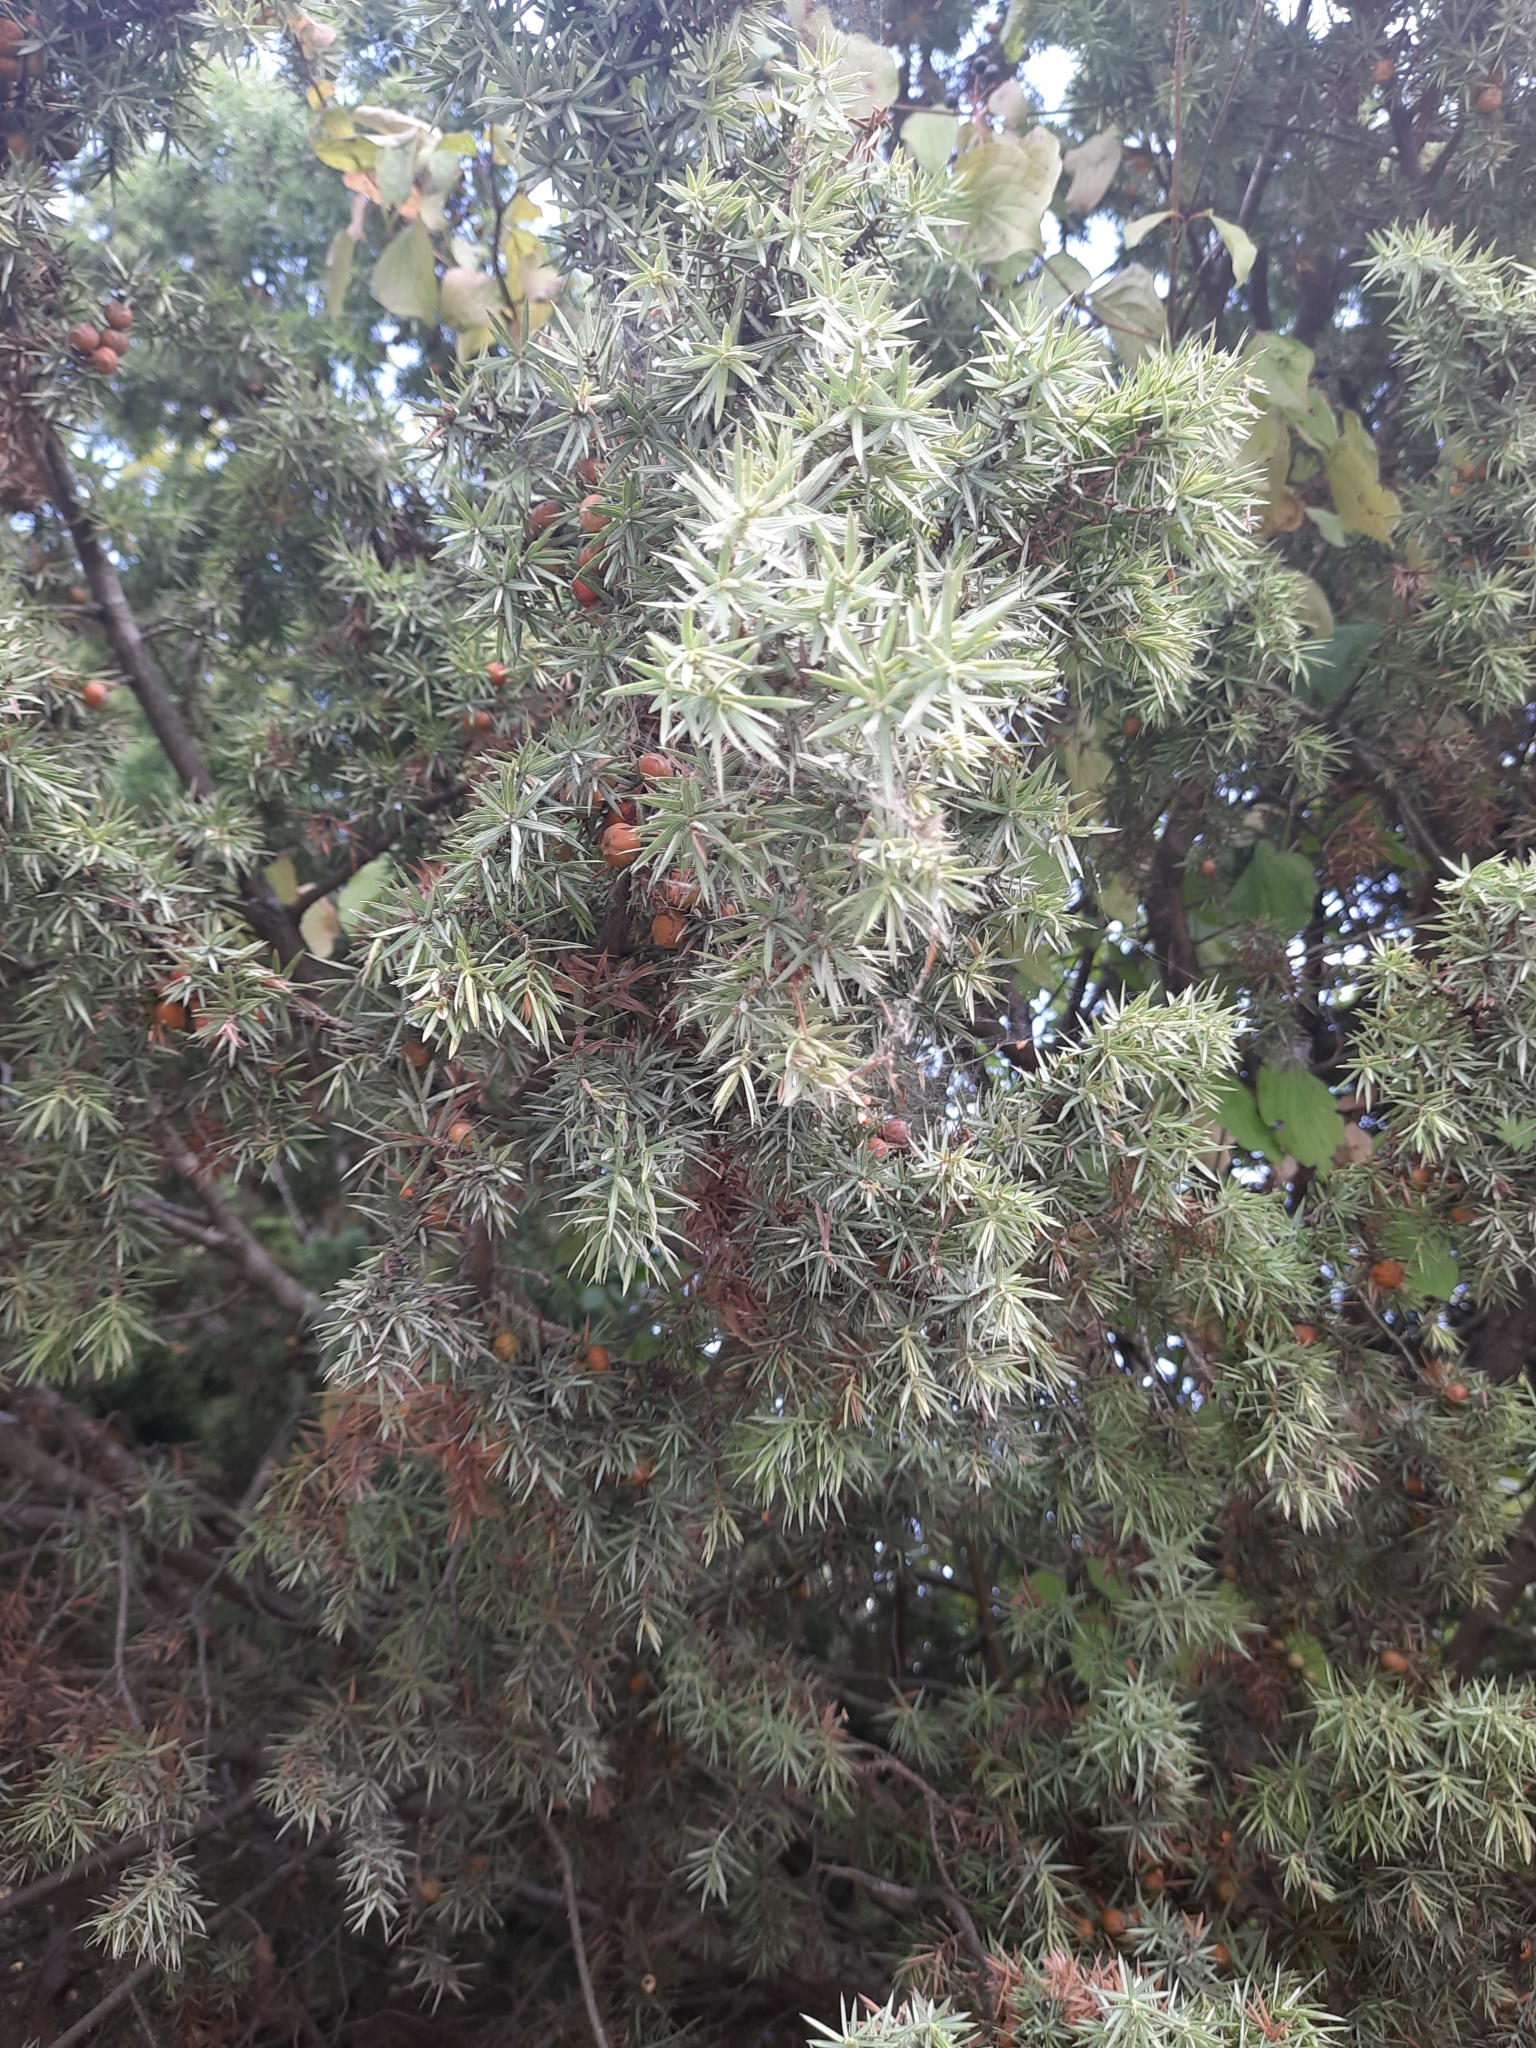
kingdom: Plantae
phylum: Tracheophyta
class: Pinopsida
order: Pinales
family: Cupressaceae
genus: Juniperus
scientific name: Juniperus oxycedrus
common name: Prickly juniper
